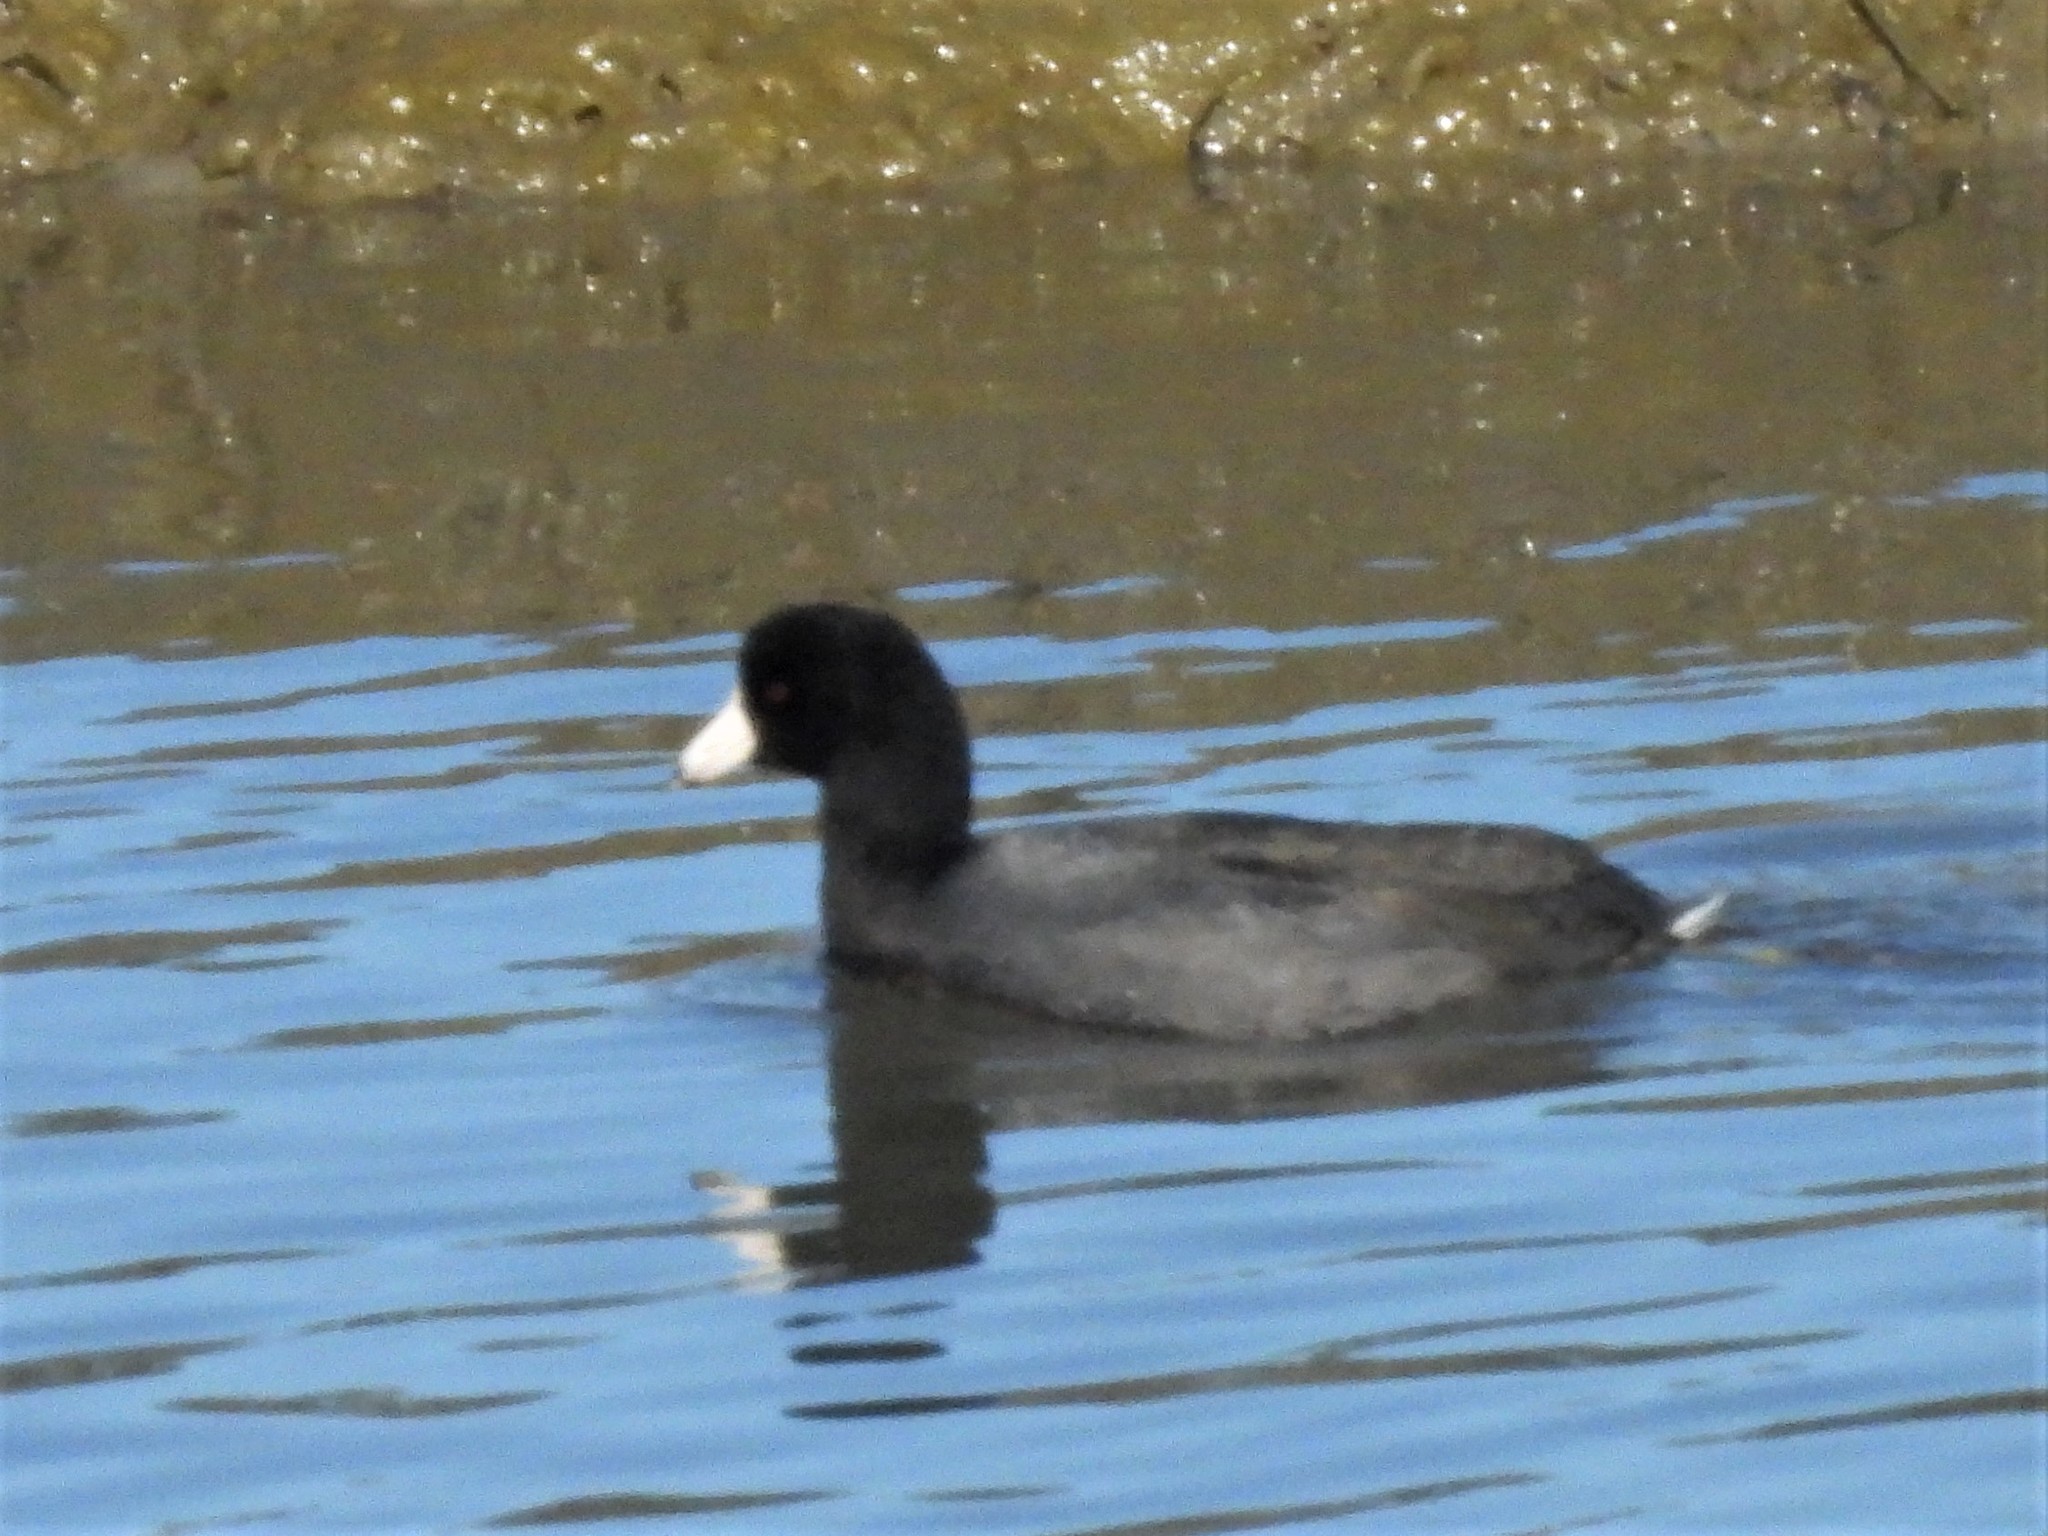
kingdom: Animalia
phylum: Chordata
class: Aves
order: Gruiformes
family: Rallidae
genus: Fulica
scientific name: Fulica americana
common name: American coot
